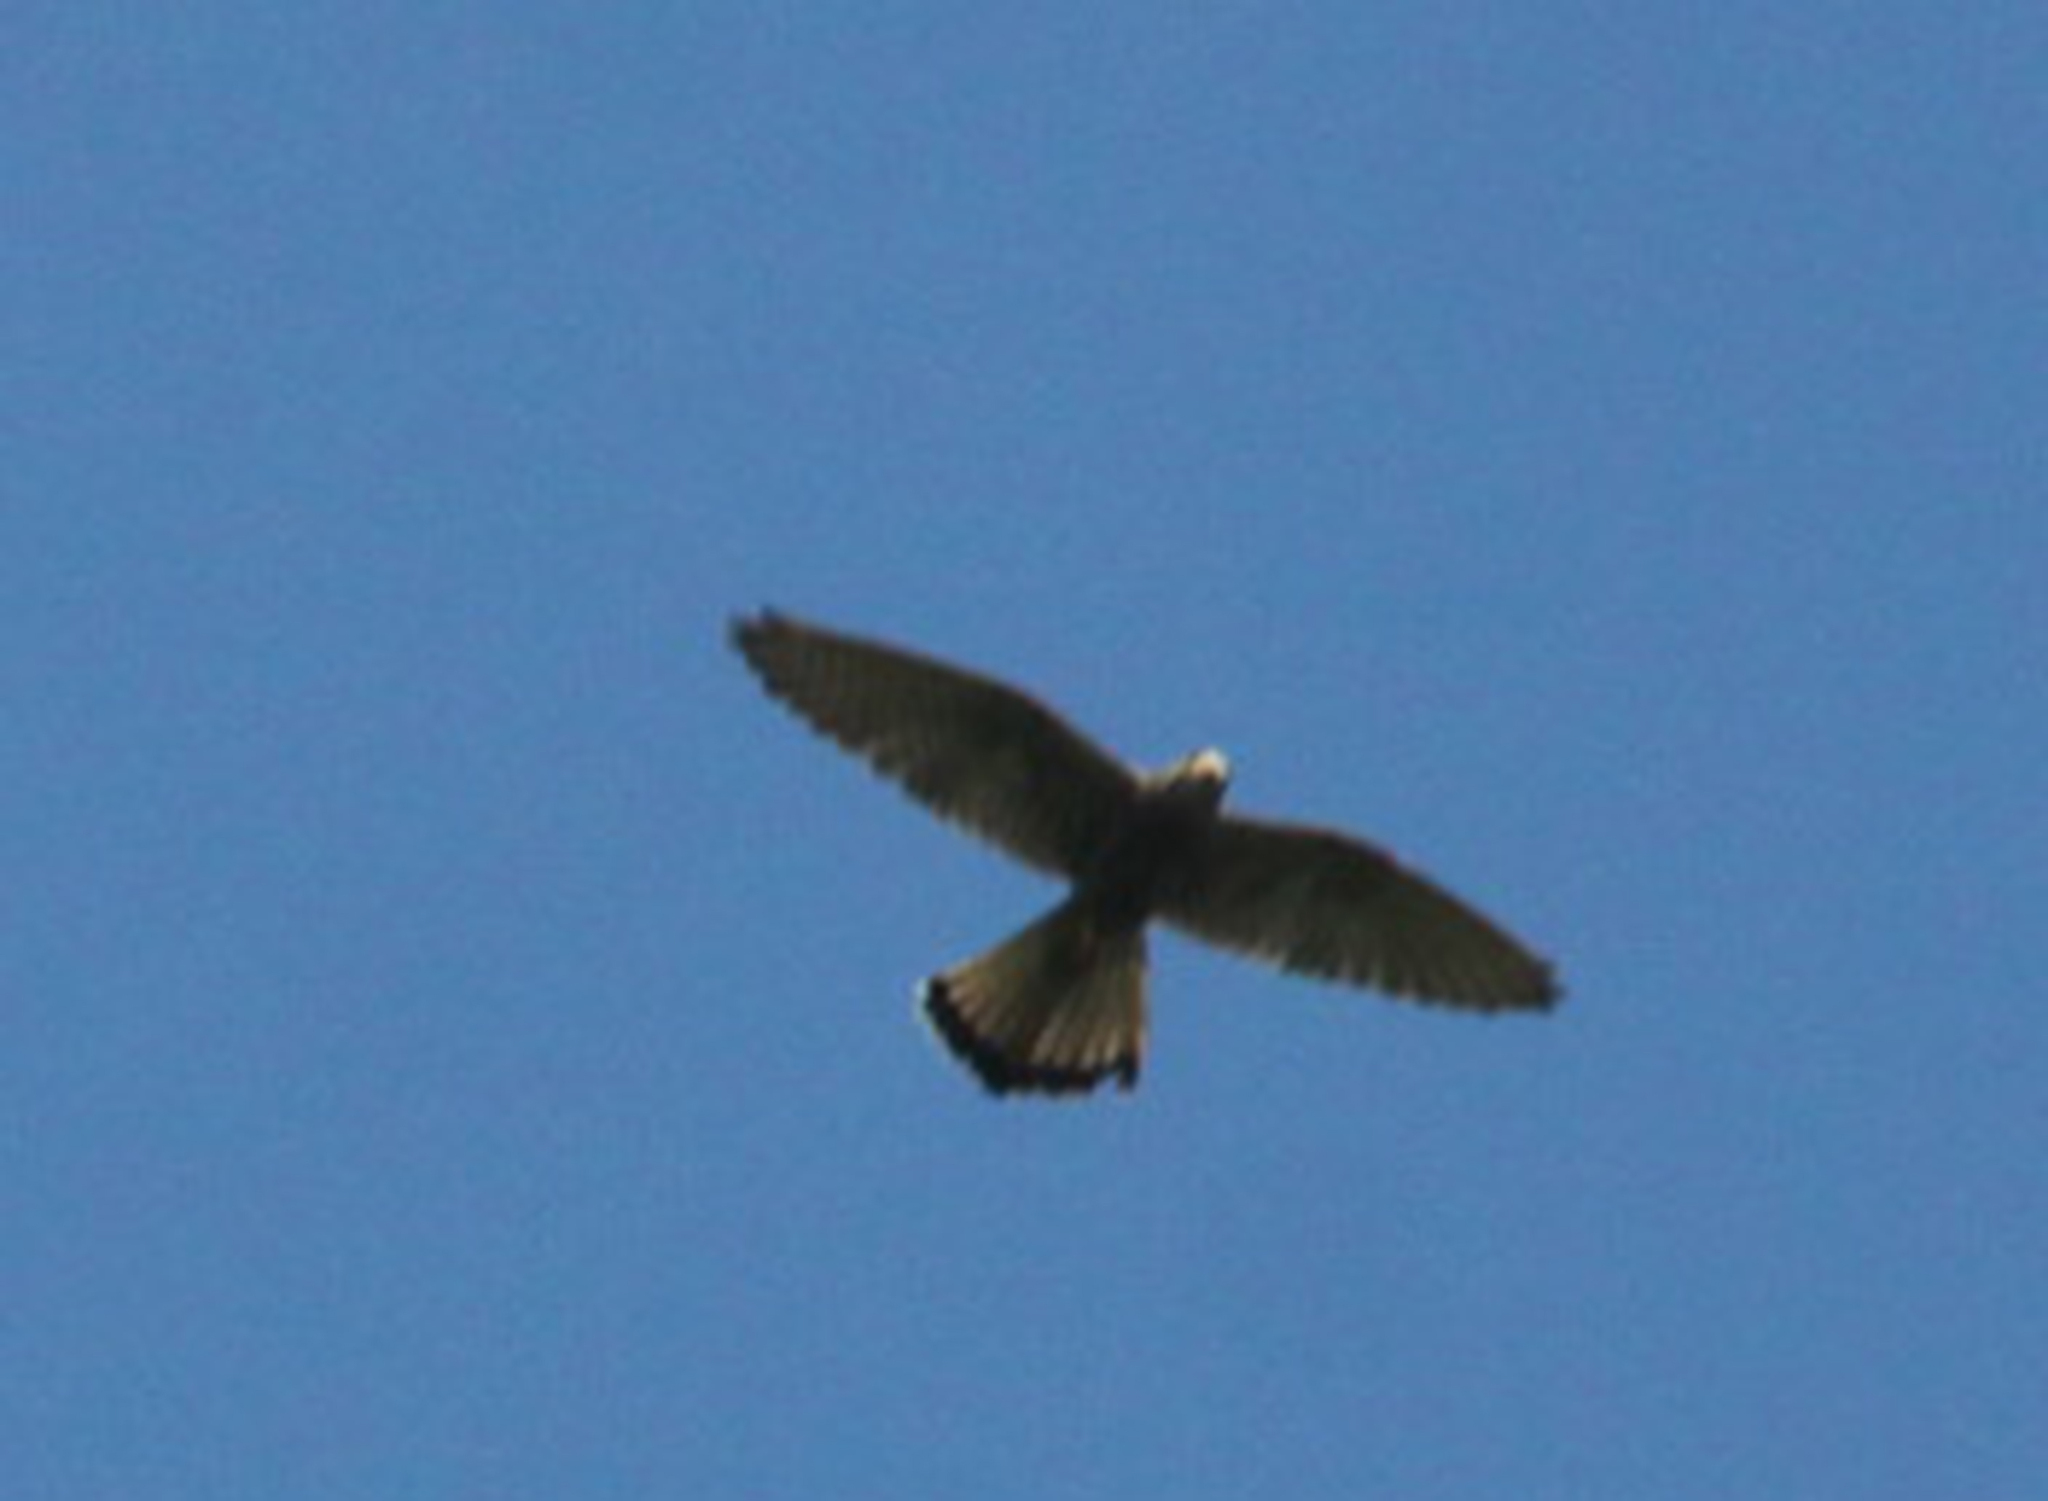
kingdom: Animalia
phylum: Chordata
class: Aves
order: Falconiformes
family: Falconidae
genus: Falco
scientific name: Falco tinnunculus
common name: Common kestrel
